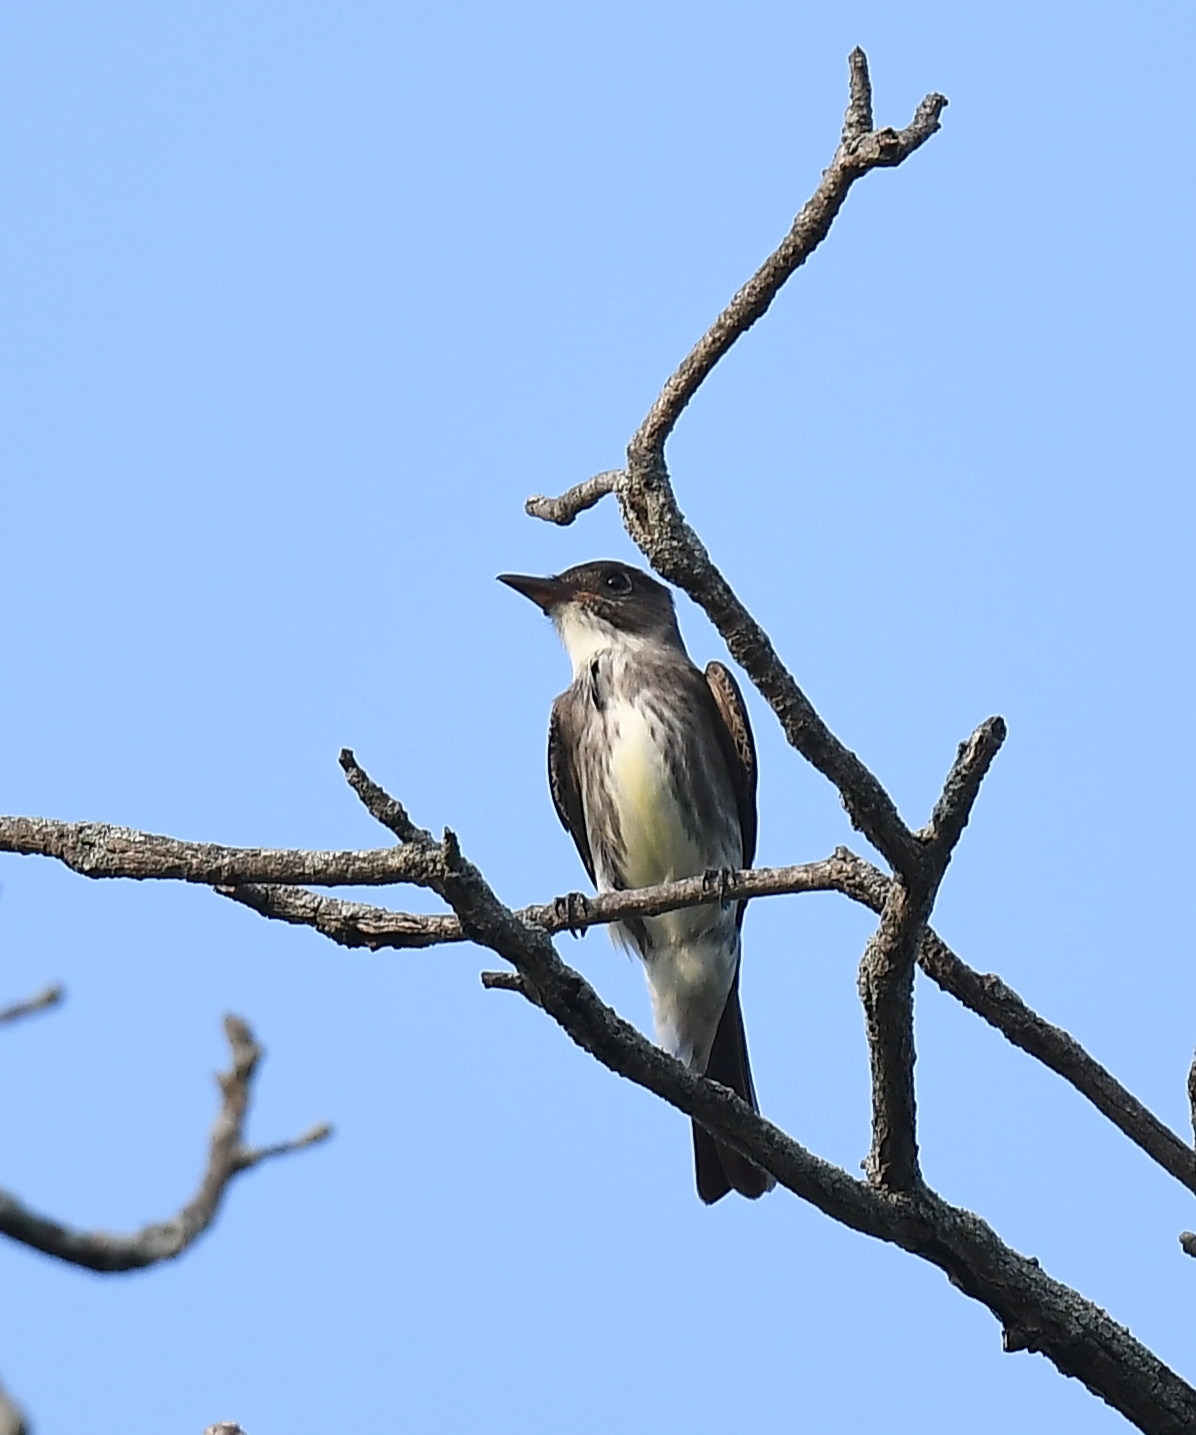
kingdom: Animalia
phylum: Chordata
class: Aves
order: Passeriformes
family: Tyrannidae
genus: Contopus
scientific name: Contopus cooperi
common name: Olive-sided flycatcher
